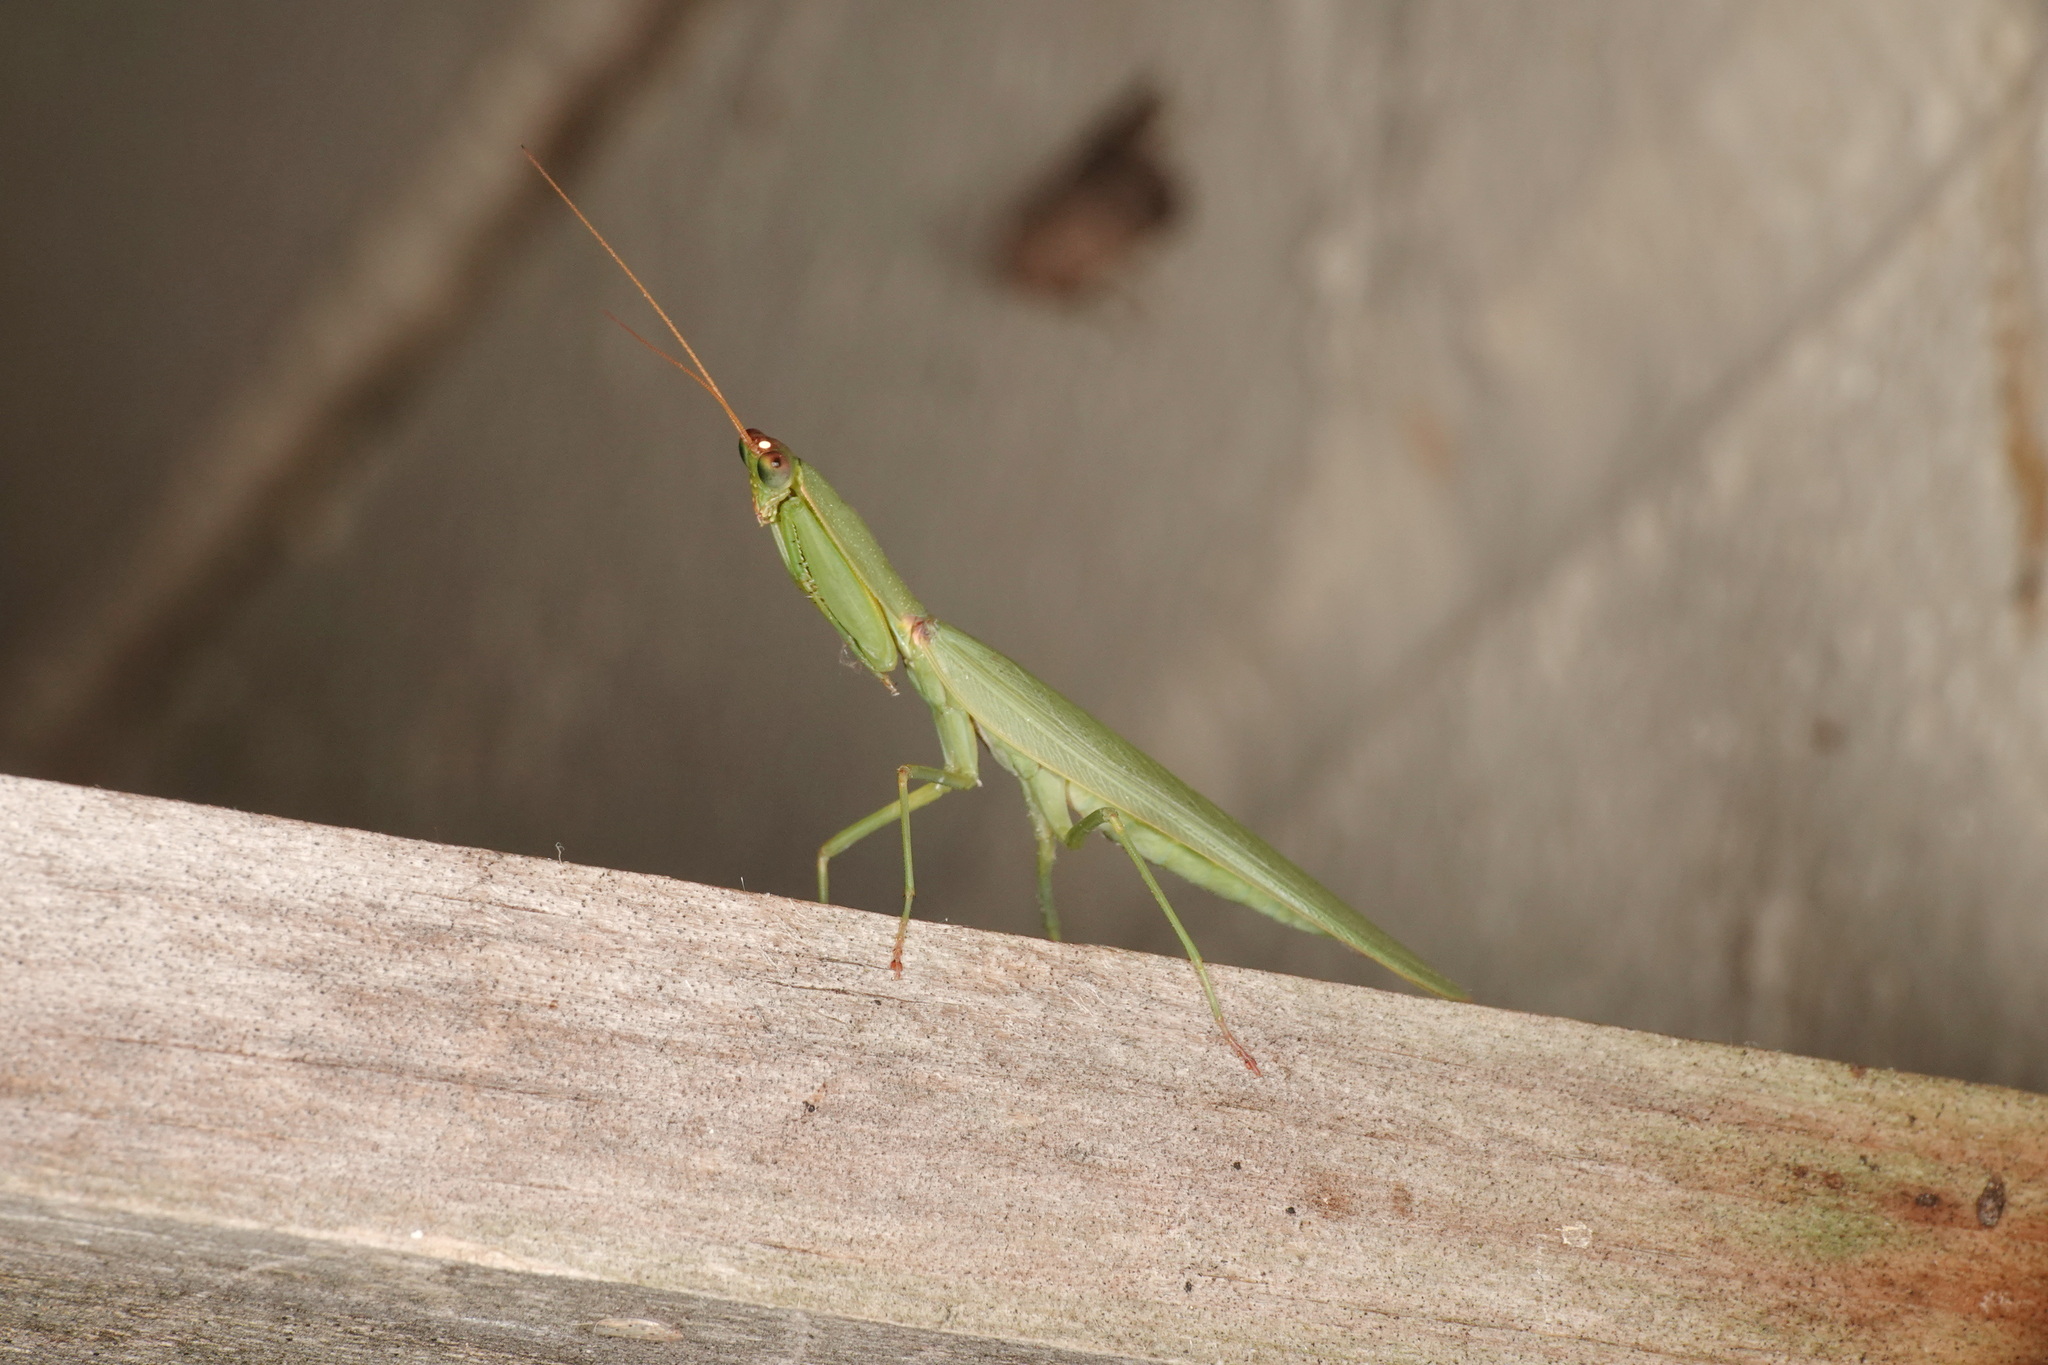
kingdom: Animalia
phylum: Arthropoda
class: Insecta
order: Mantodea
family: Mantidae
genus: Orthodera
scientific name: Orthodera ministralis
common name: Mantis
